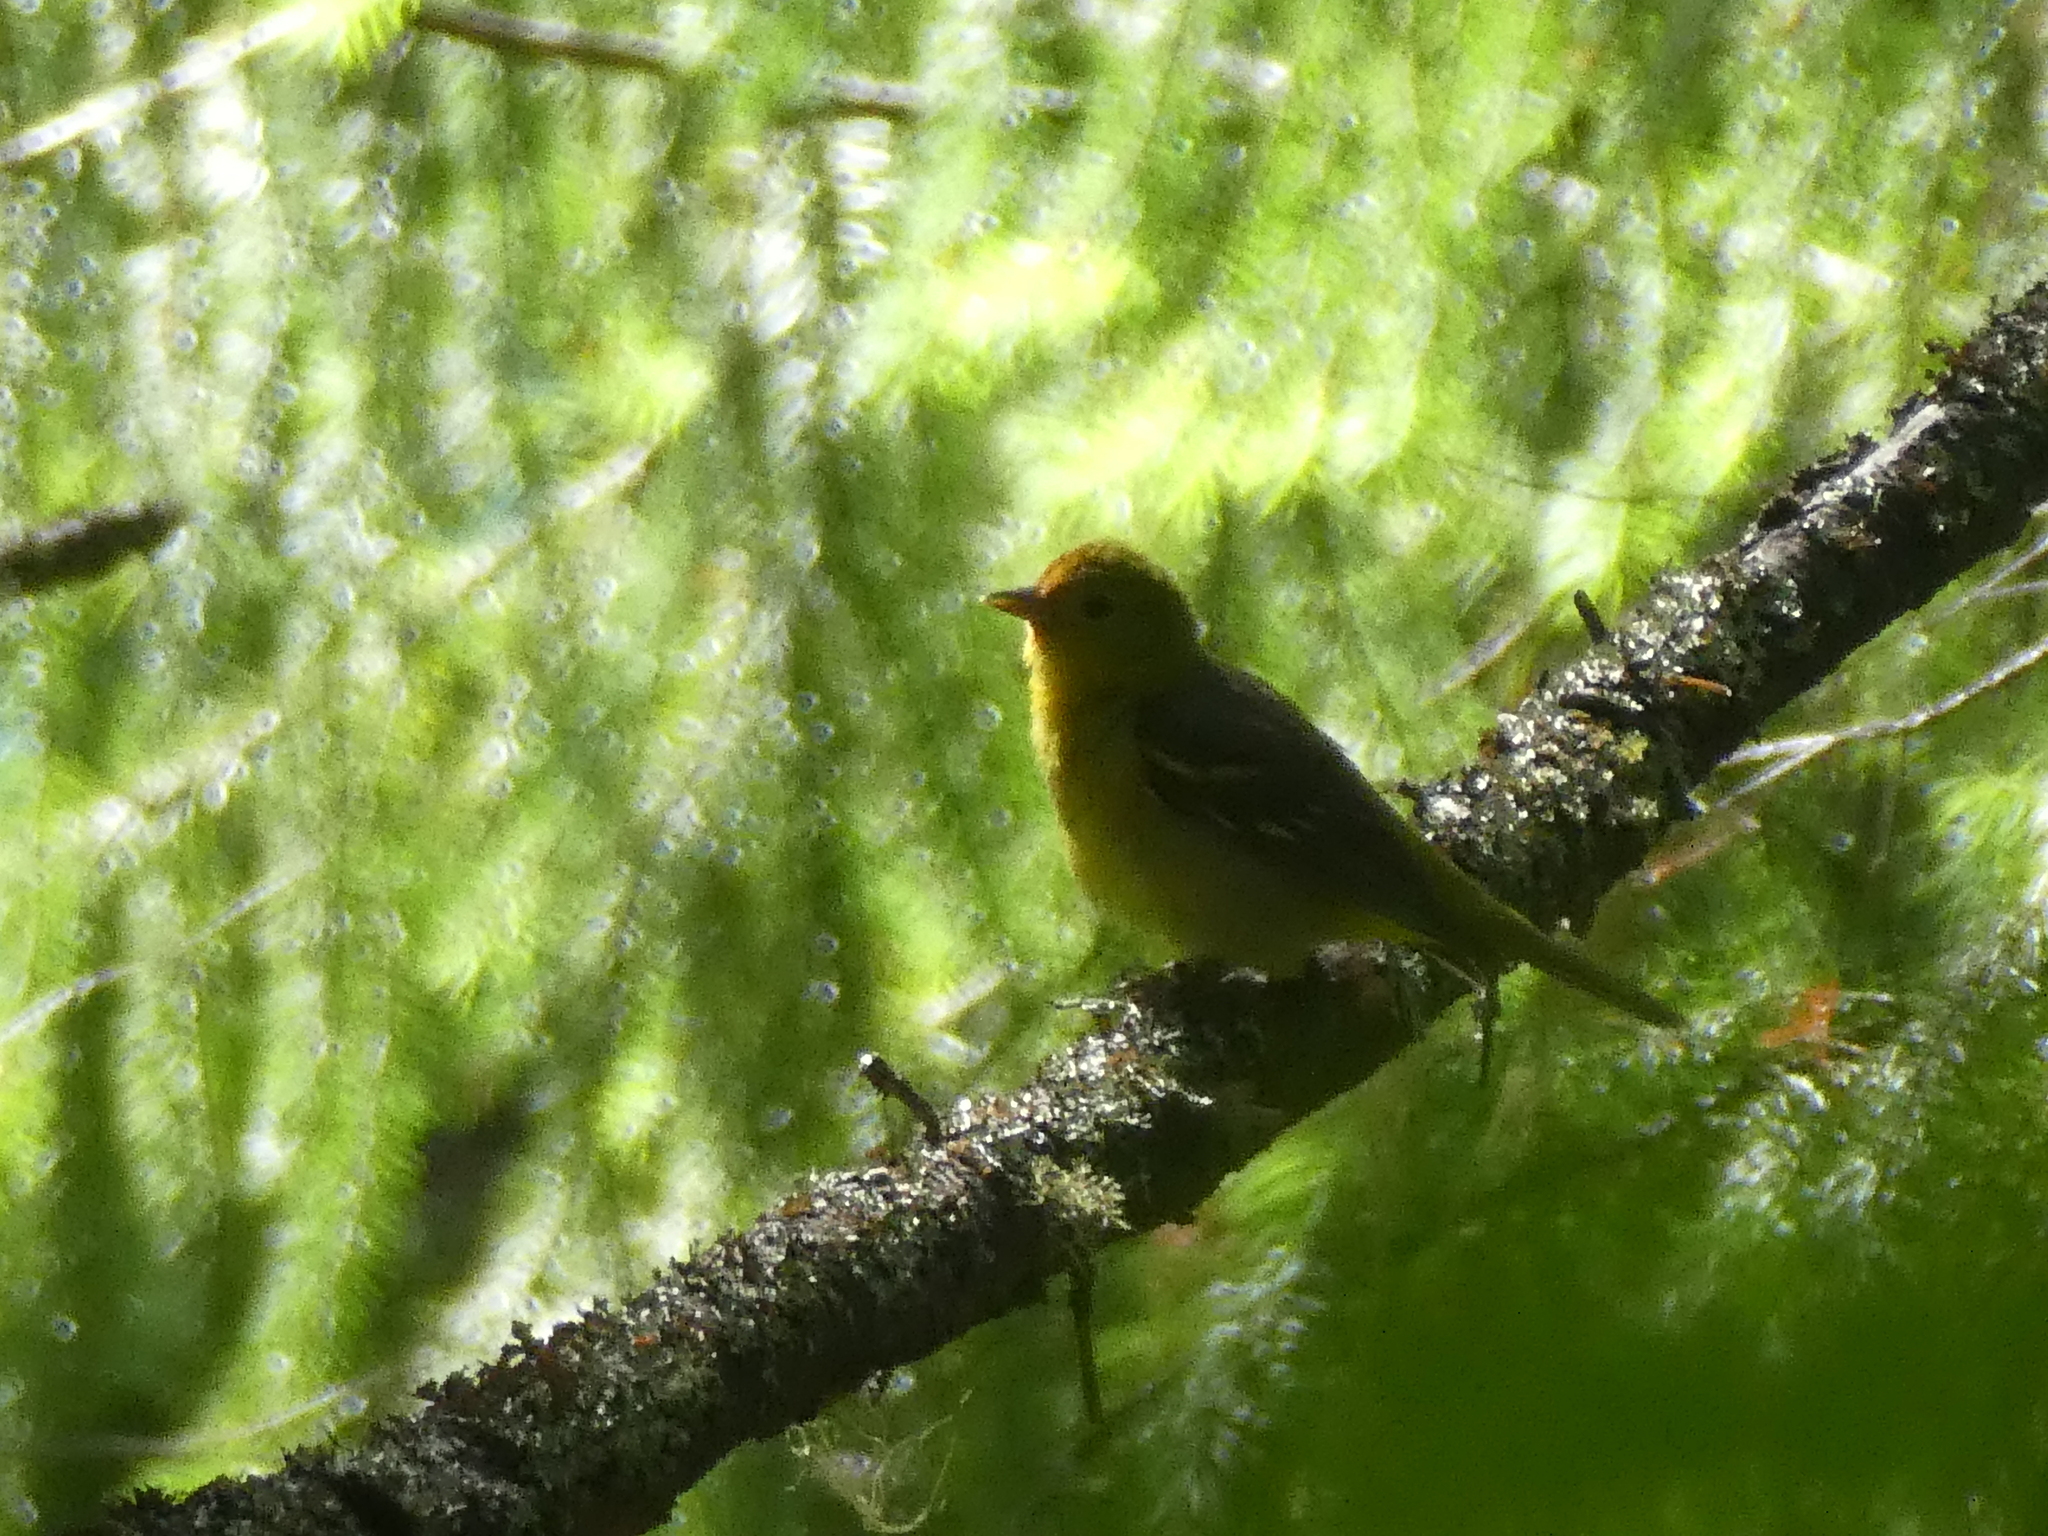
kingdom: Animalia
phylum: Chordata
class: Aves
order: Passeriformes
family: Cardinalidae
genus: Piranga
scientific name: Piranga ludoviciana
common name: Western tanager
